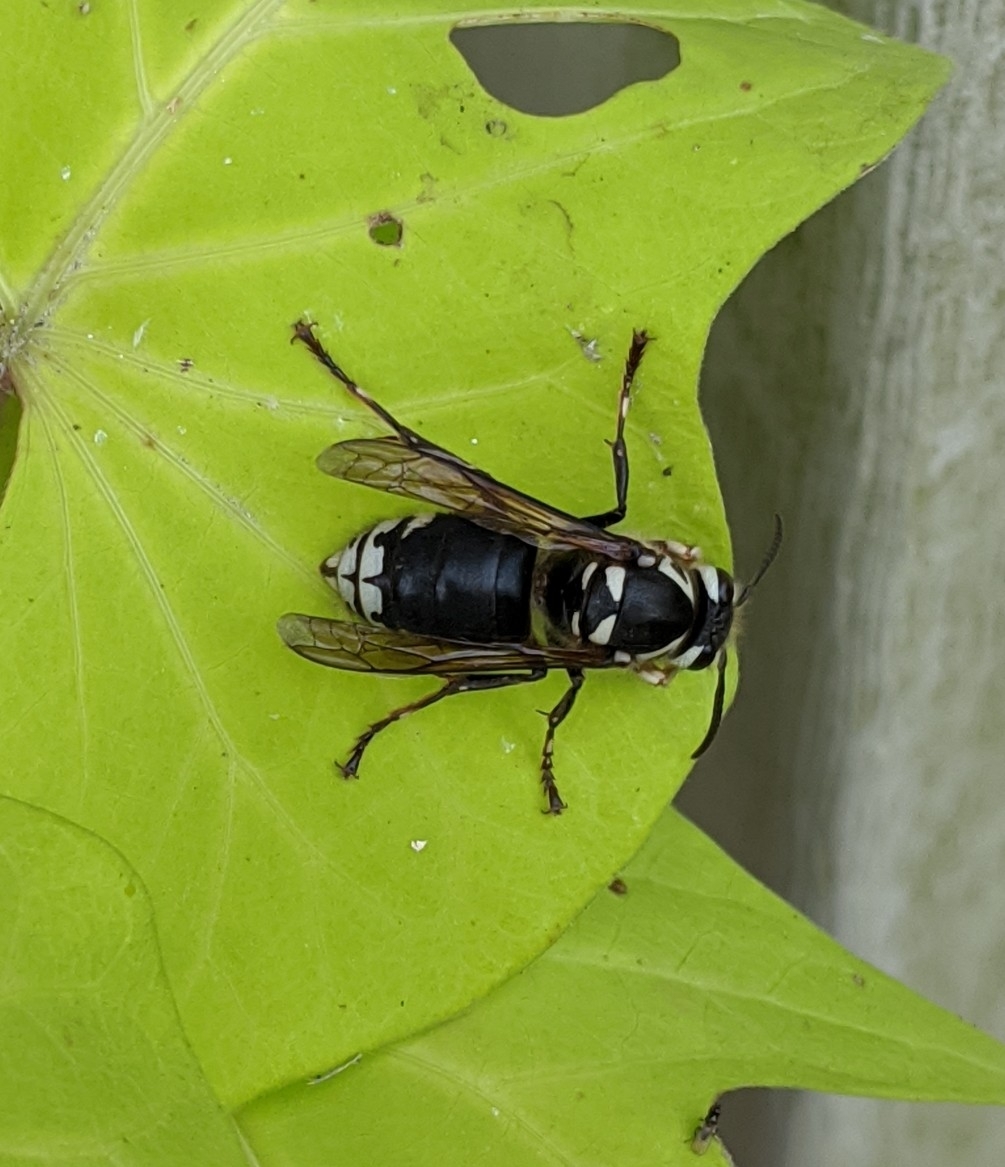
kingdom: Animalia
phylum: Arthropoda
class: Insecta
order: Hymenoptera
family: Vespidae
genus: Dolichovespula
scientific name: Dolichovespula maculata
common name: Bald-faced hornet
